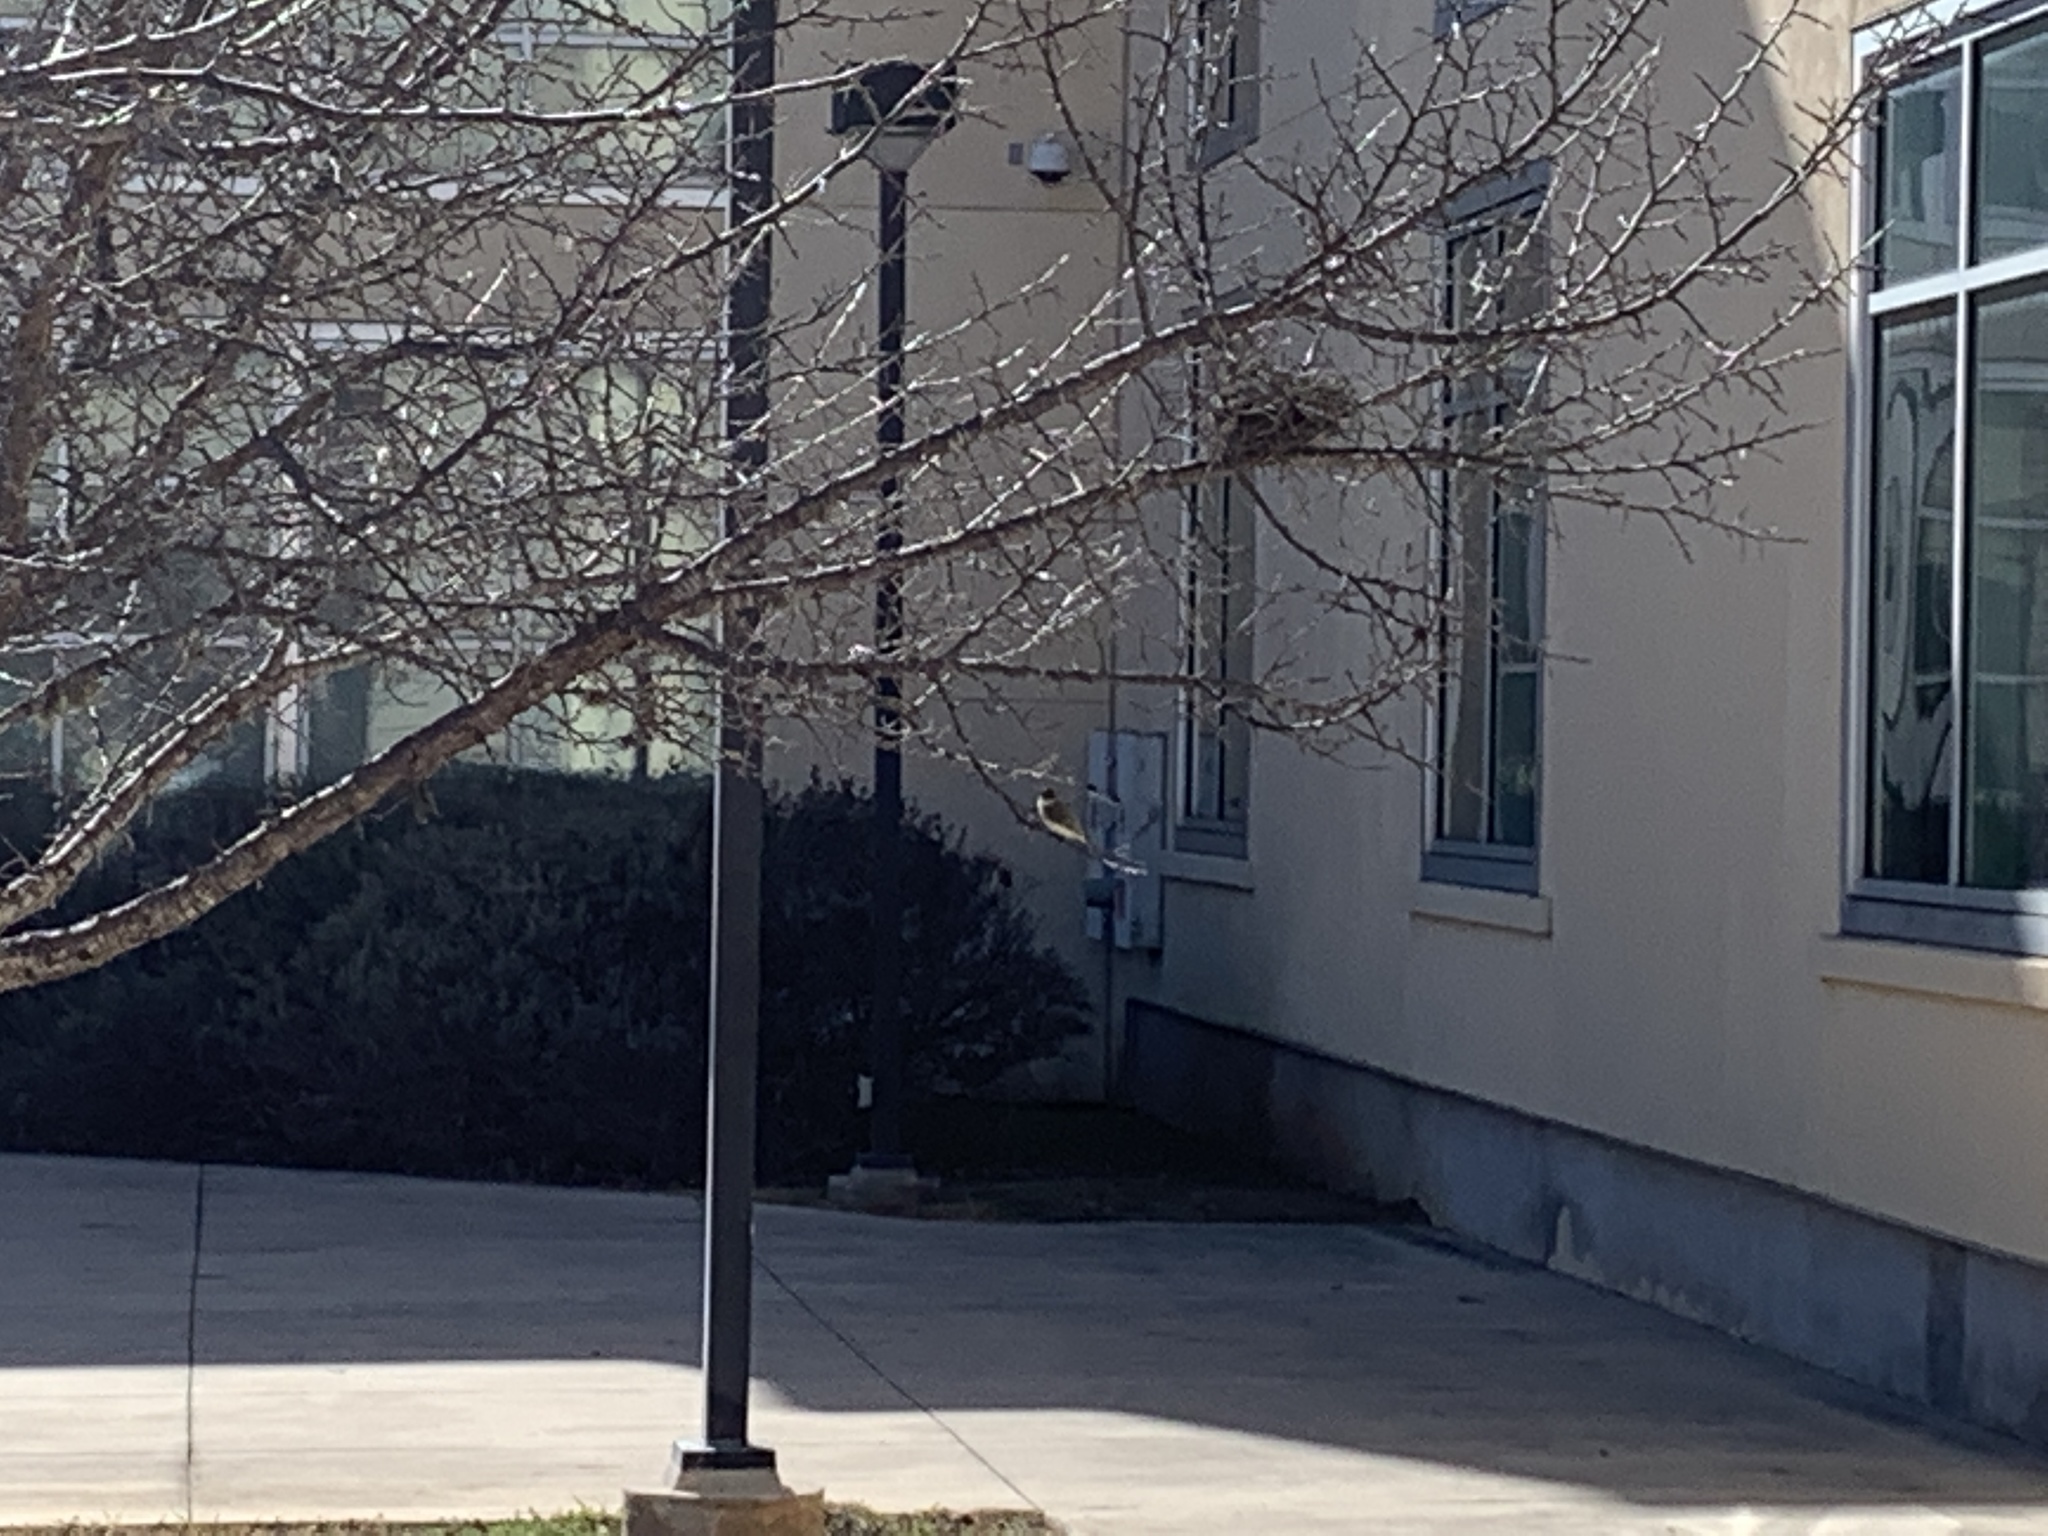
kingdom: Animalia
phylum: Chordata
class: Aves
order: Passeriformes
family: Tyrannidae
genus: Sayornis
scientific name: Sayornis phoebe
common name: Eastern phoebe
